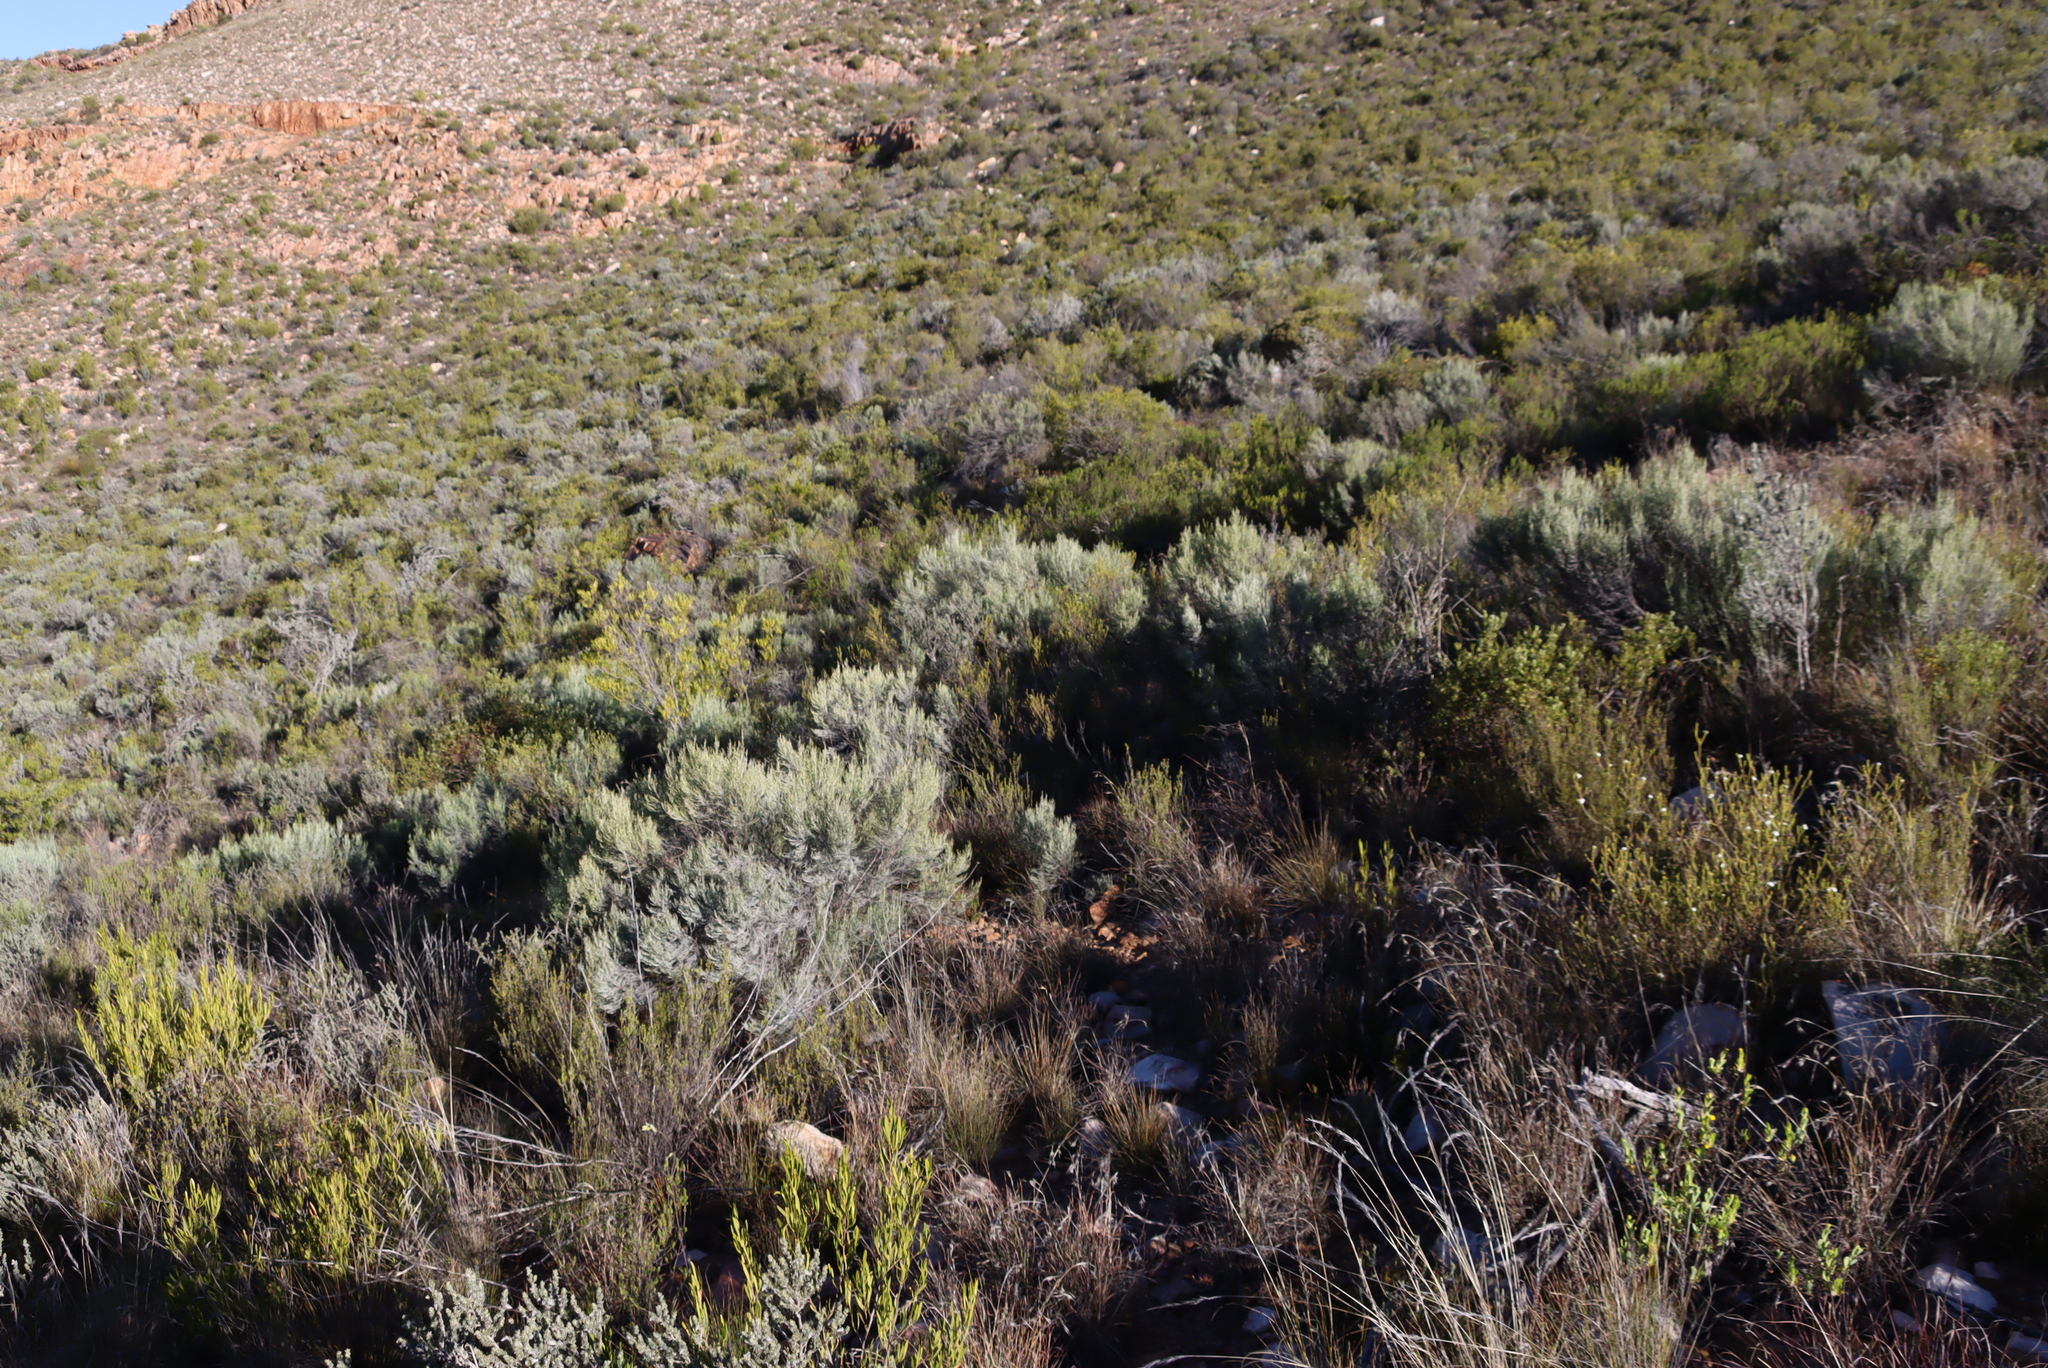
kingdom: Plantae
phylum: Tracheophyta
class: Magnoliopsida
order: Asterales
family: Asteraceae
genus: Dicerothamnus
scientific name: Dicerothamnus rhinocerotis
